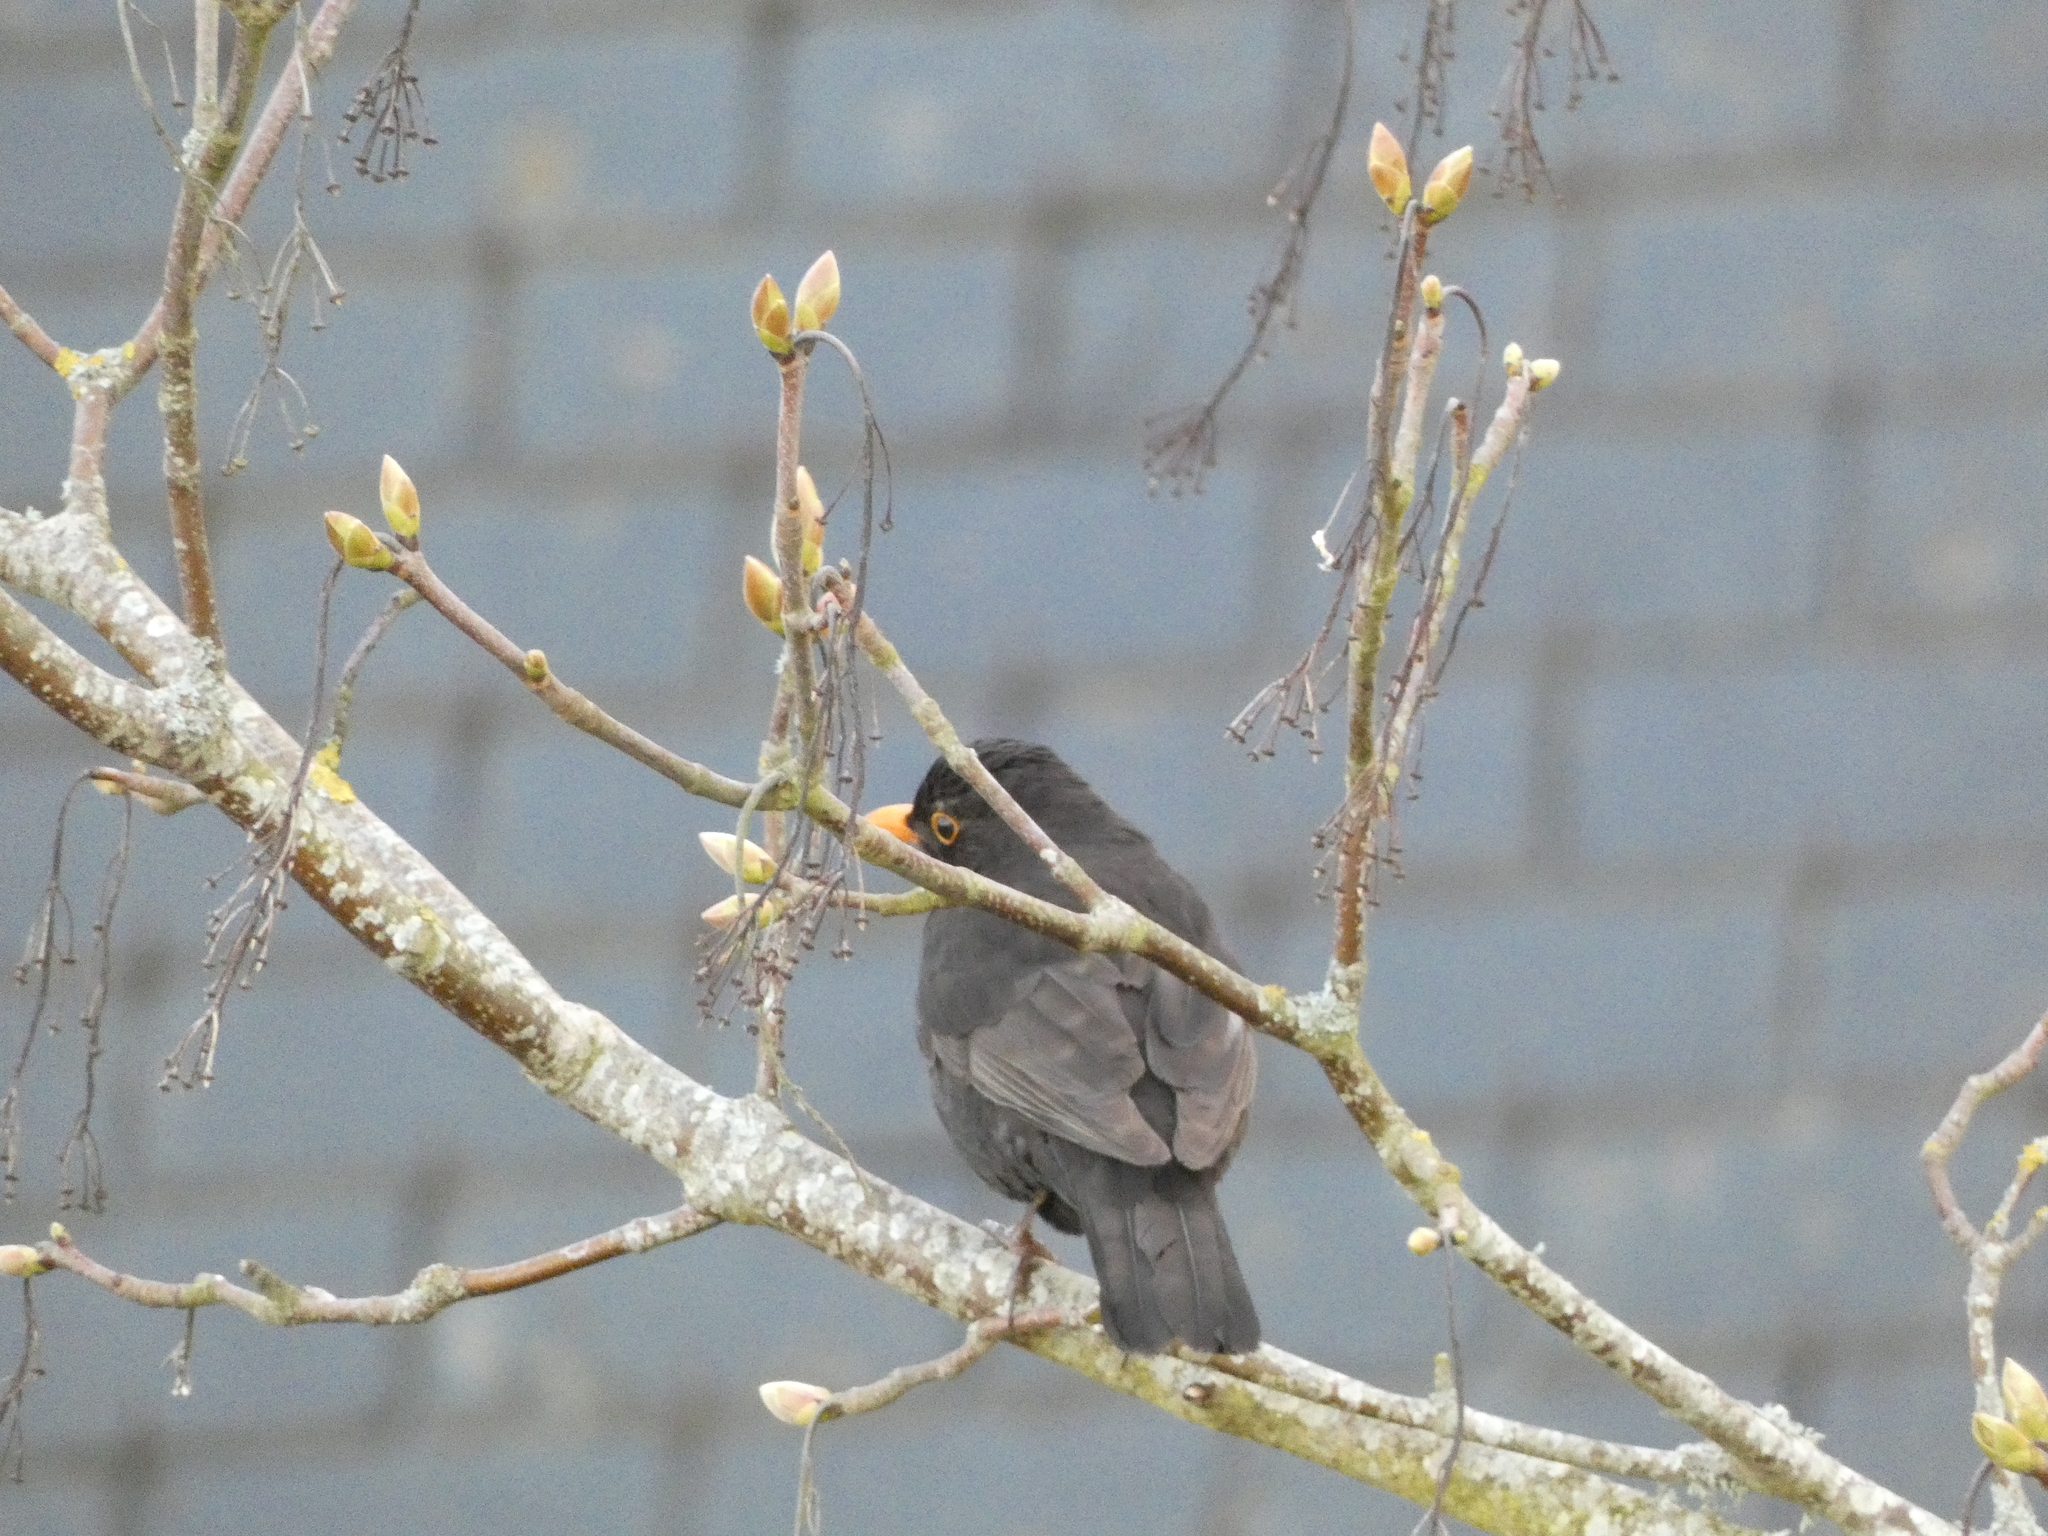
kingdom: Animalia
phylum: Chordata
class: Aves
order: Passeriformes
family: Turdidae
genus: Turdus
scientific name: Turdus merula
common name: Common blackbird
